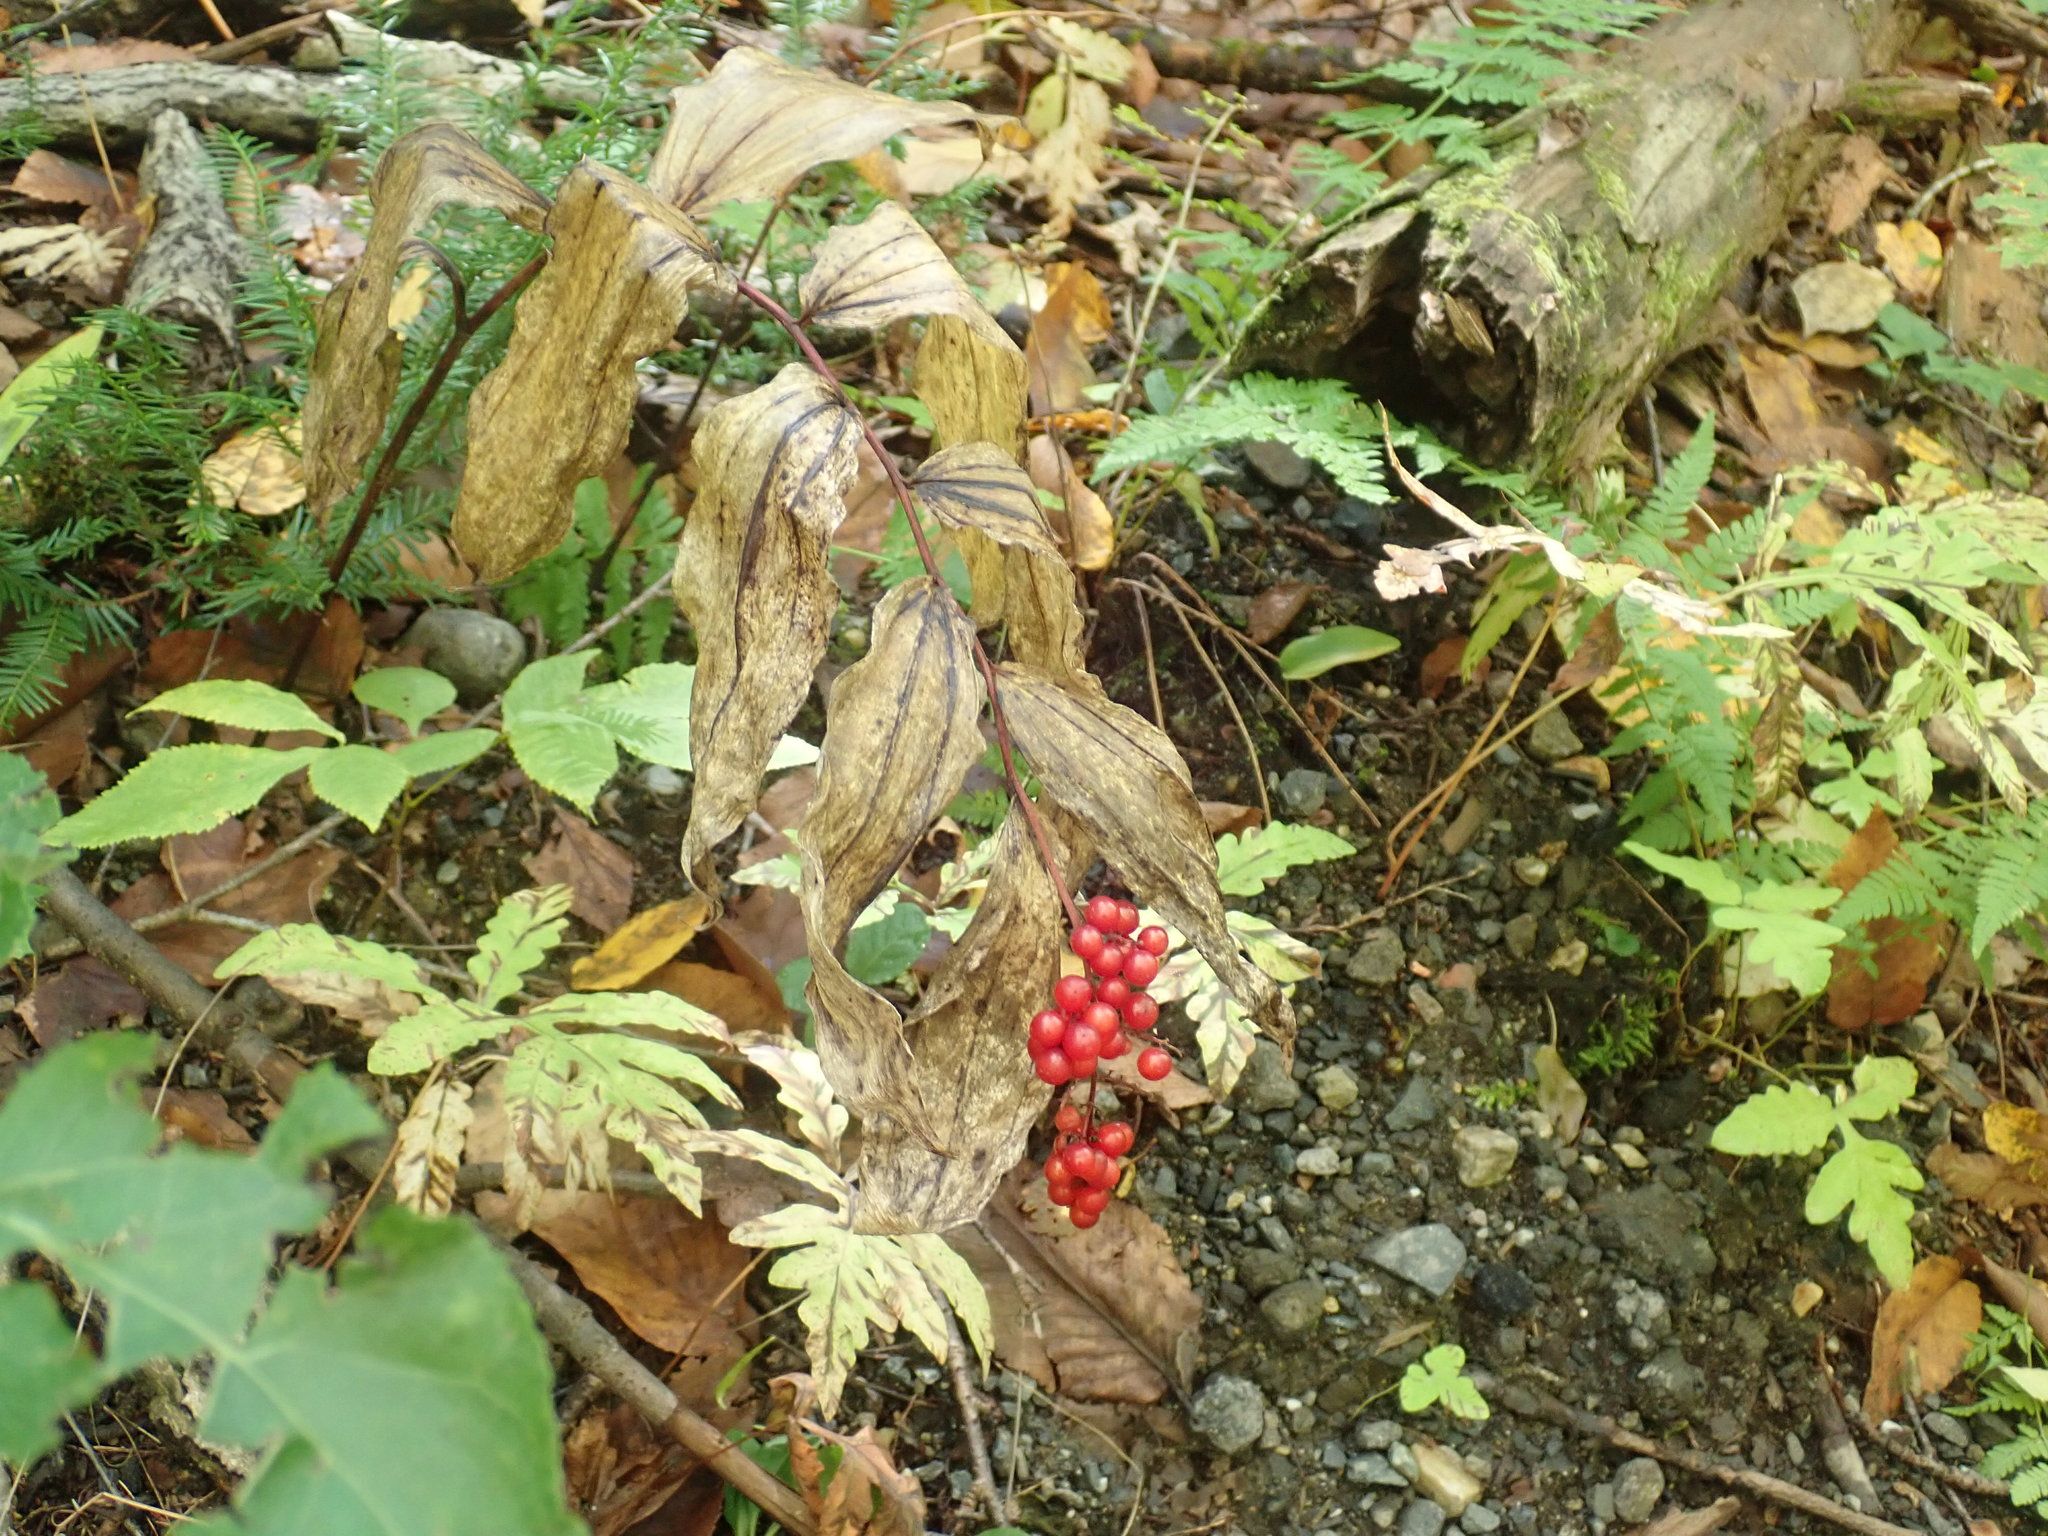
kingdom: Plantae
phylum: Tracheophyta
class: Liliopsida
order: Asparagales
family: Asparagaceae
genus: Maianthemum
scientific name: Maianthemum racemosum
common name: False spikenard
